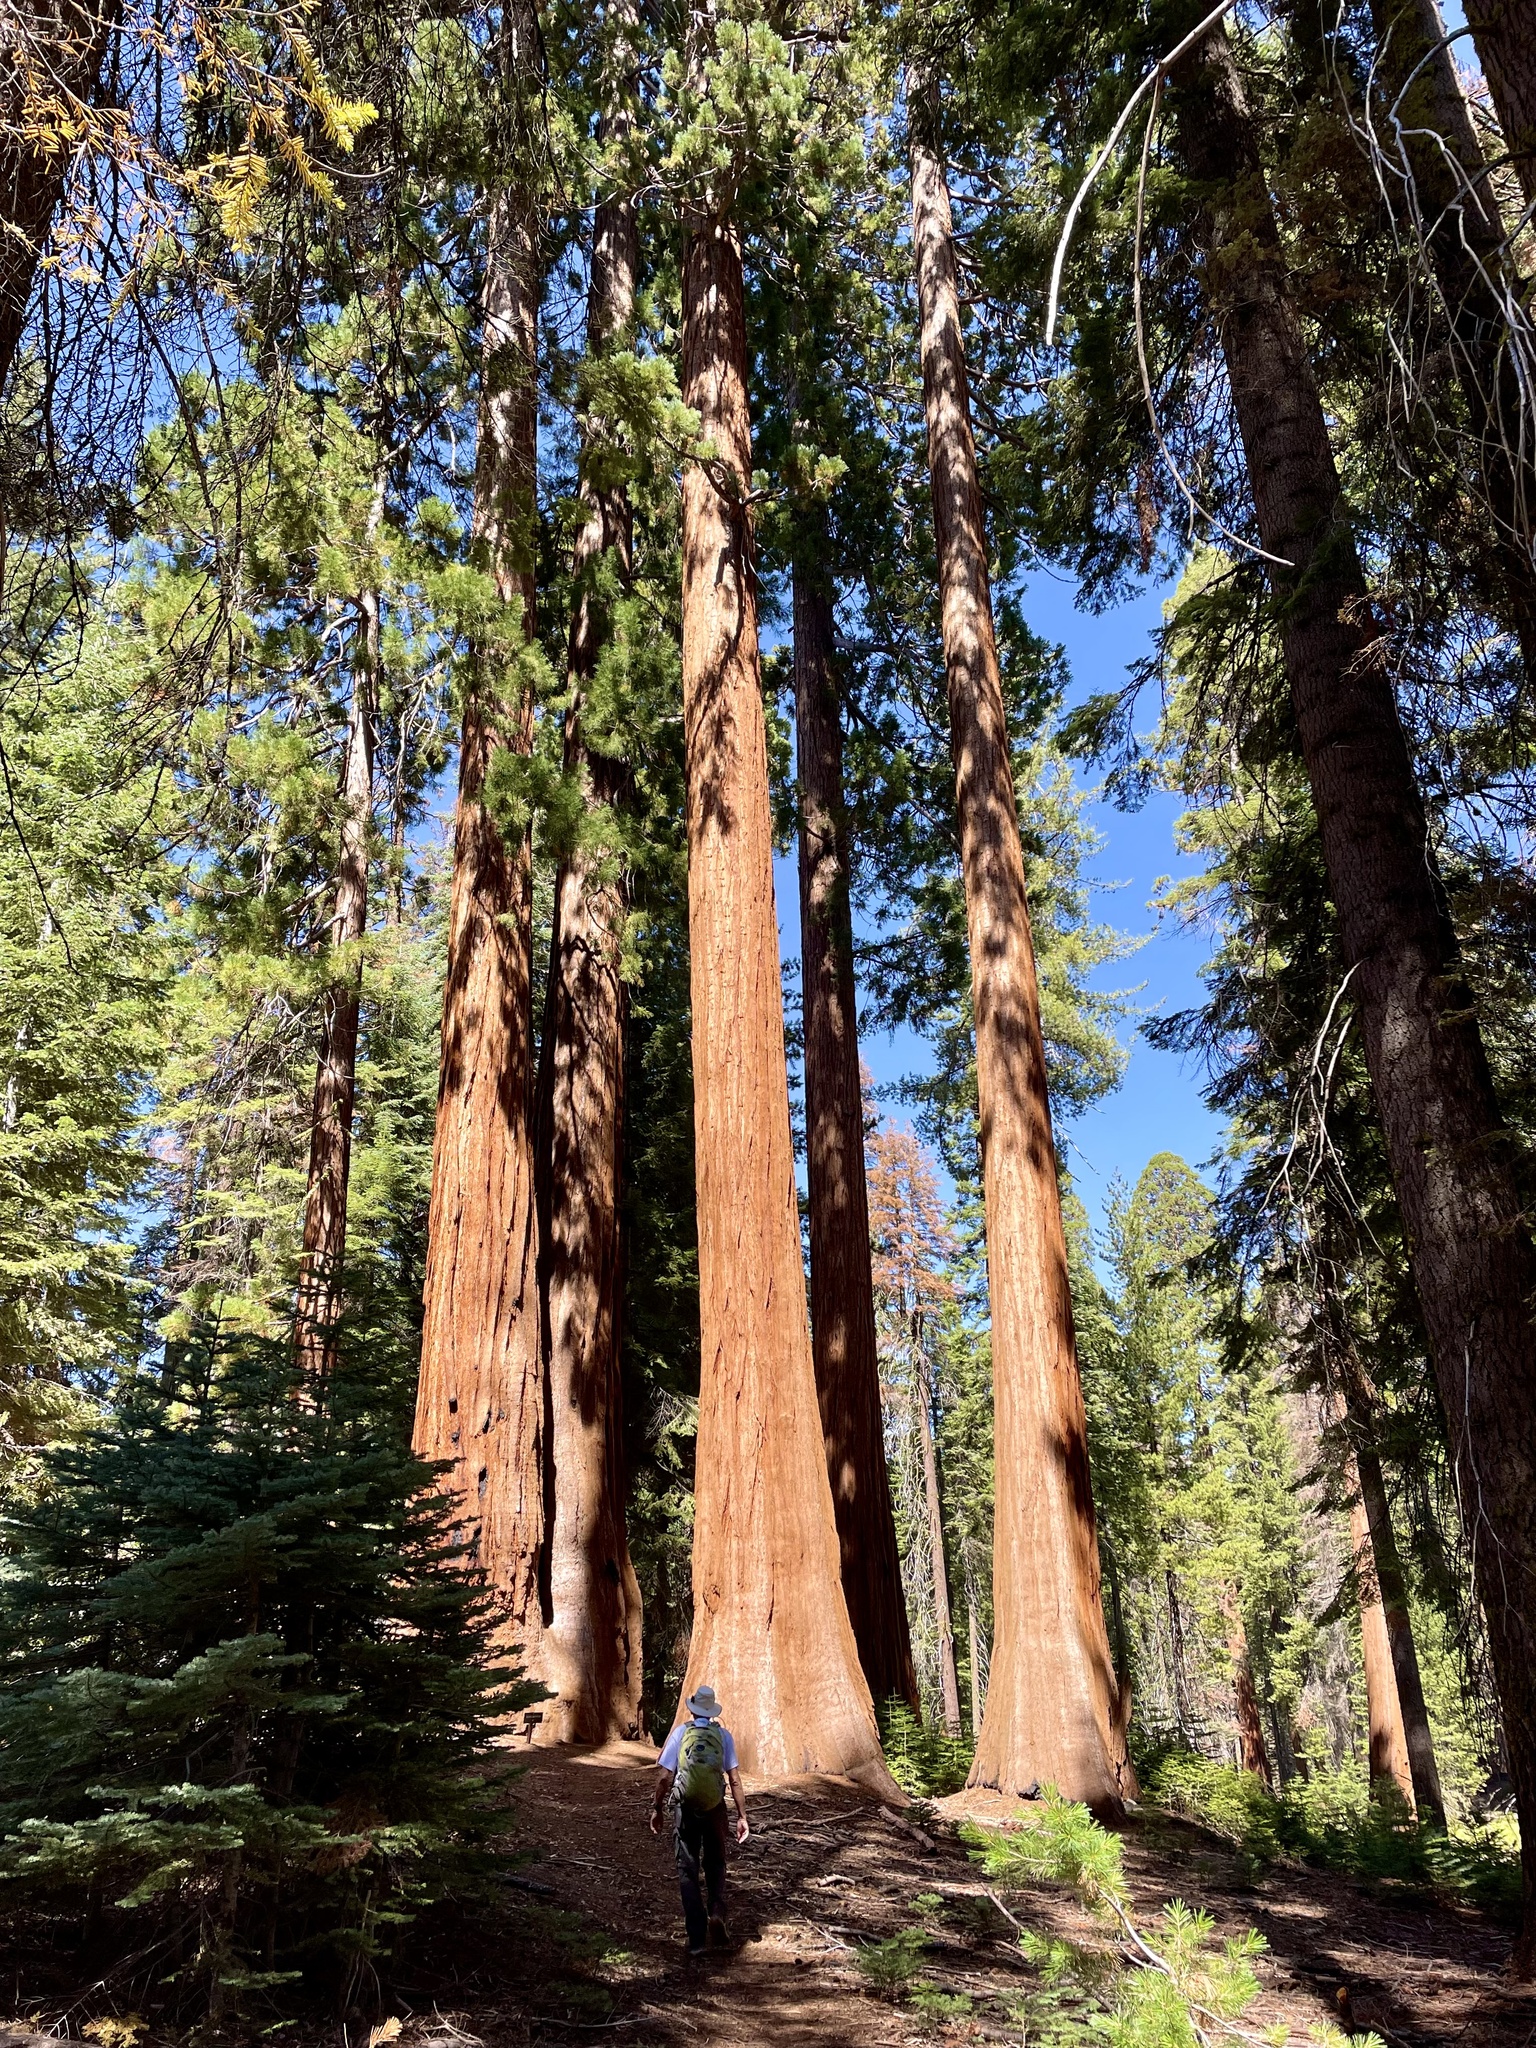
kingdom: Plantae
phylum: Tracheophyta
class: Pinopsida
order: Pinales
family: Cupressaceae
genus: Sequoiadendron
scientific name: Sequoiadendron giganteum
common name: Wellingtonia
